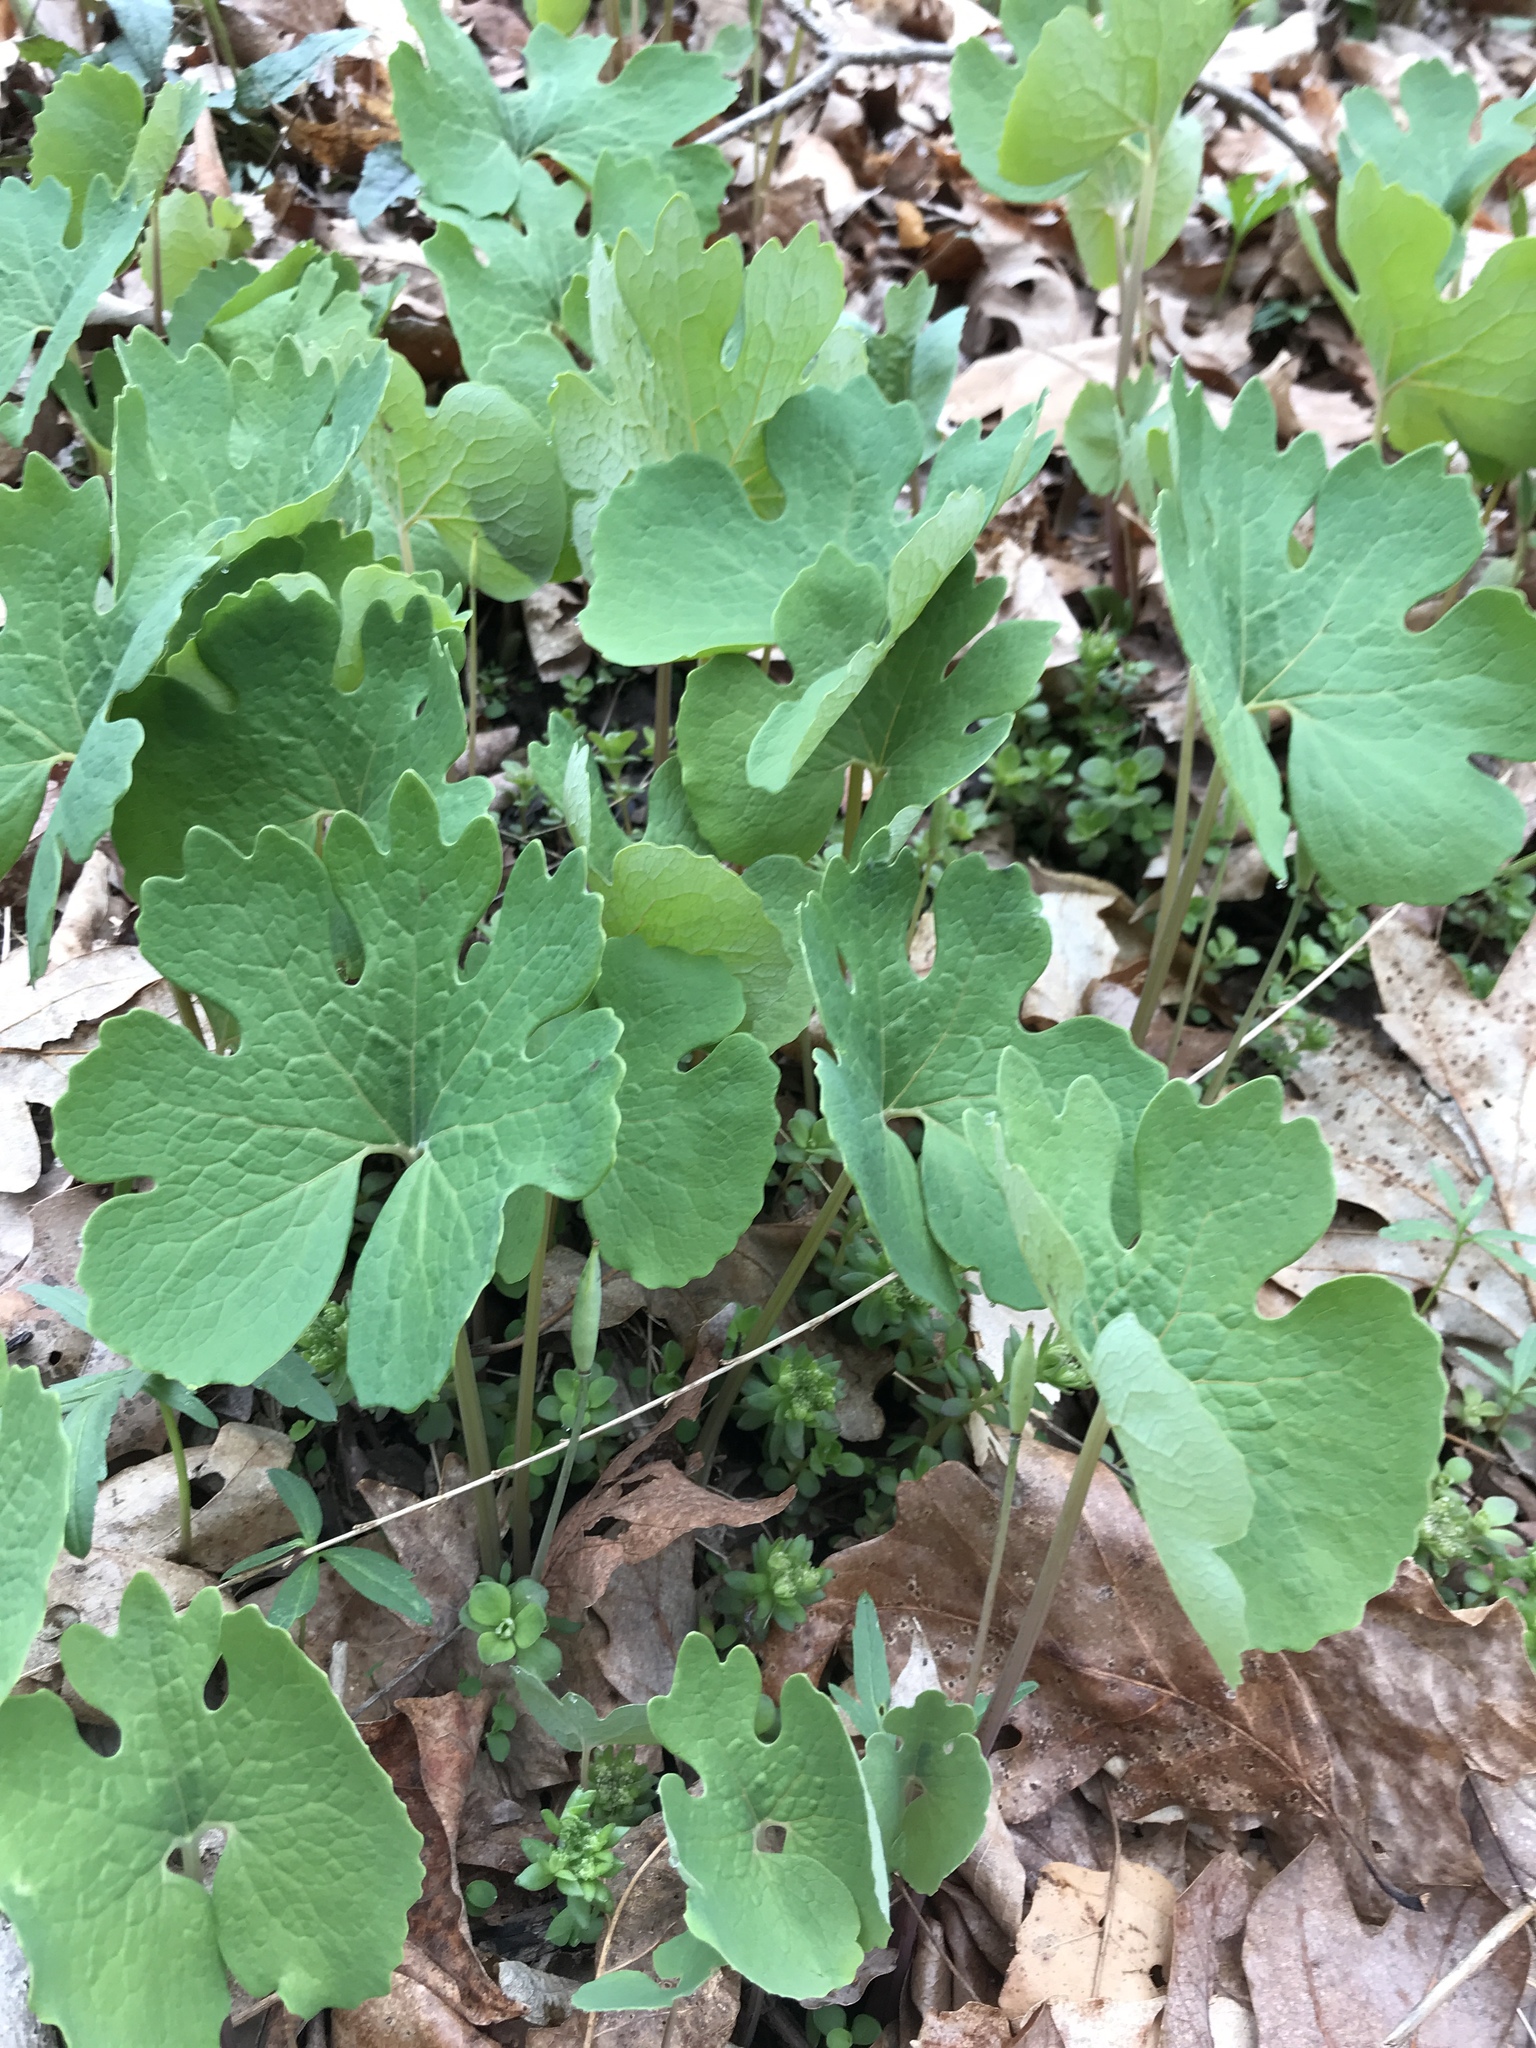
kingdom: Plantae
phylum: Tracheophyta
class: Magnoliopsida
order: Ranunculales
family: Papaveraceae
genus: Sanguinaria
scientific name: Sanguinaria canadensis
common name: Bloodroot
